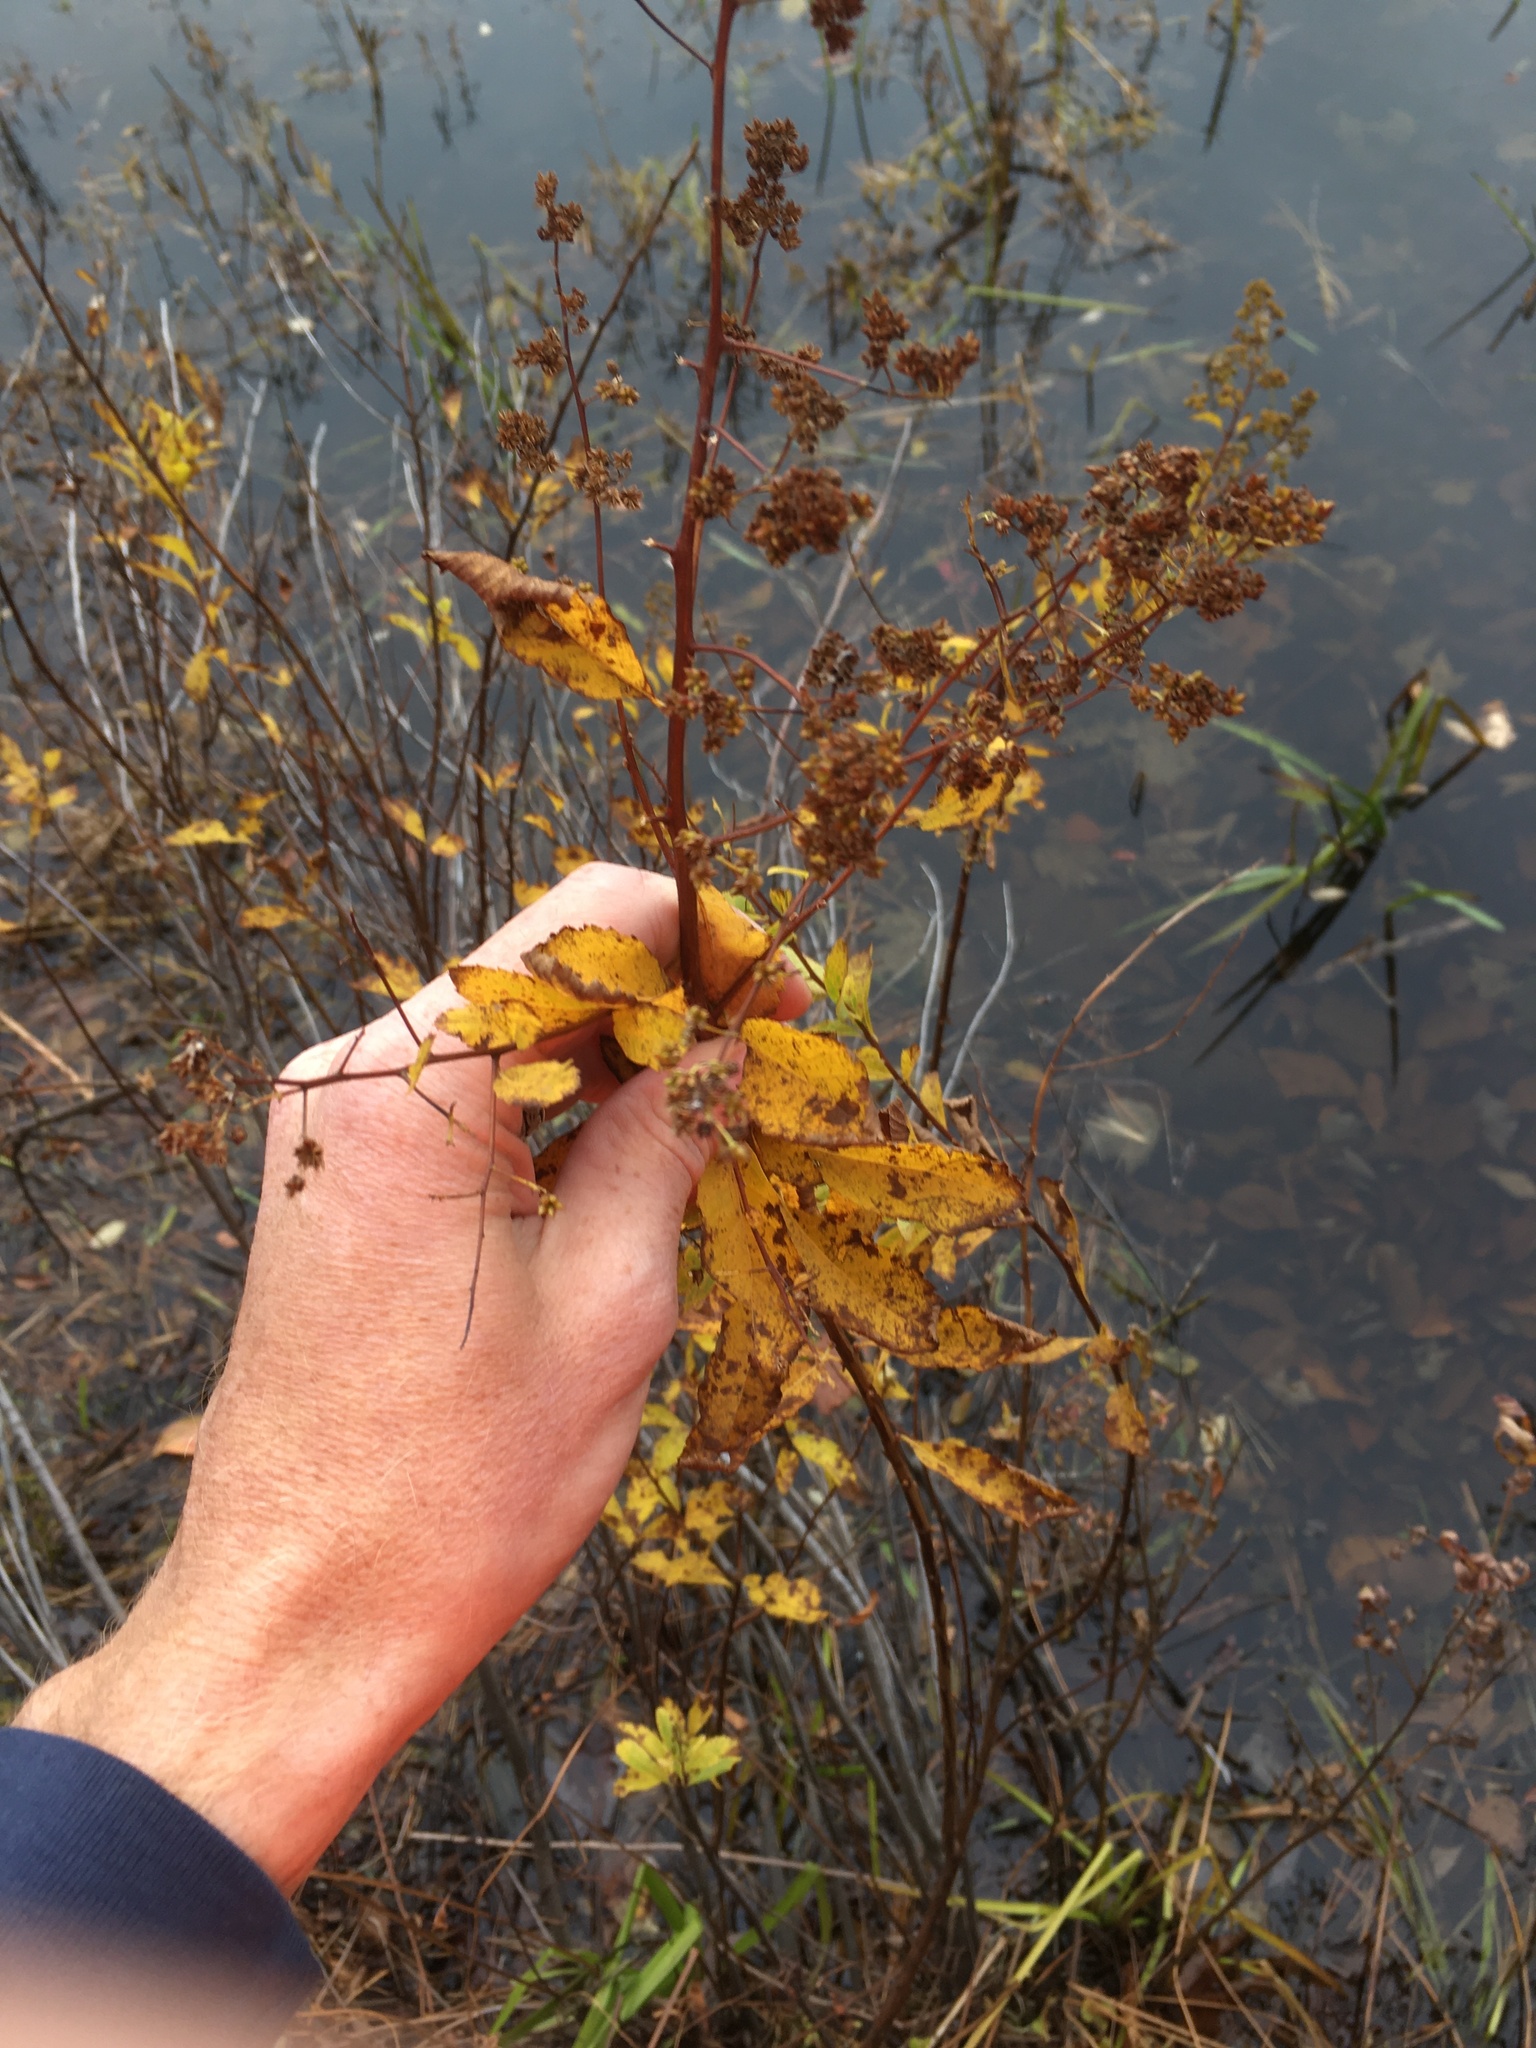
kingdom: Plantae
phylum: Tracheophyta
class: Magnoliopsida
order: Rosales
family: Rosaceae
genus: Spiraea
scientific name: Spiraea alba
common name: Pale bridewort
